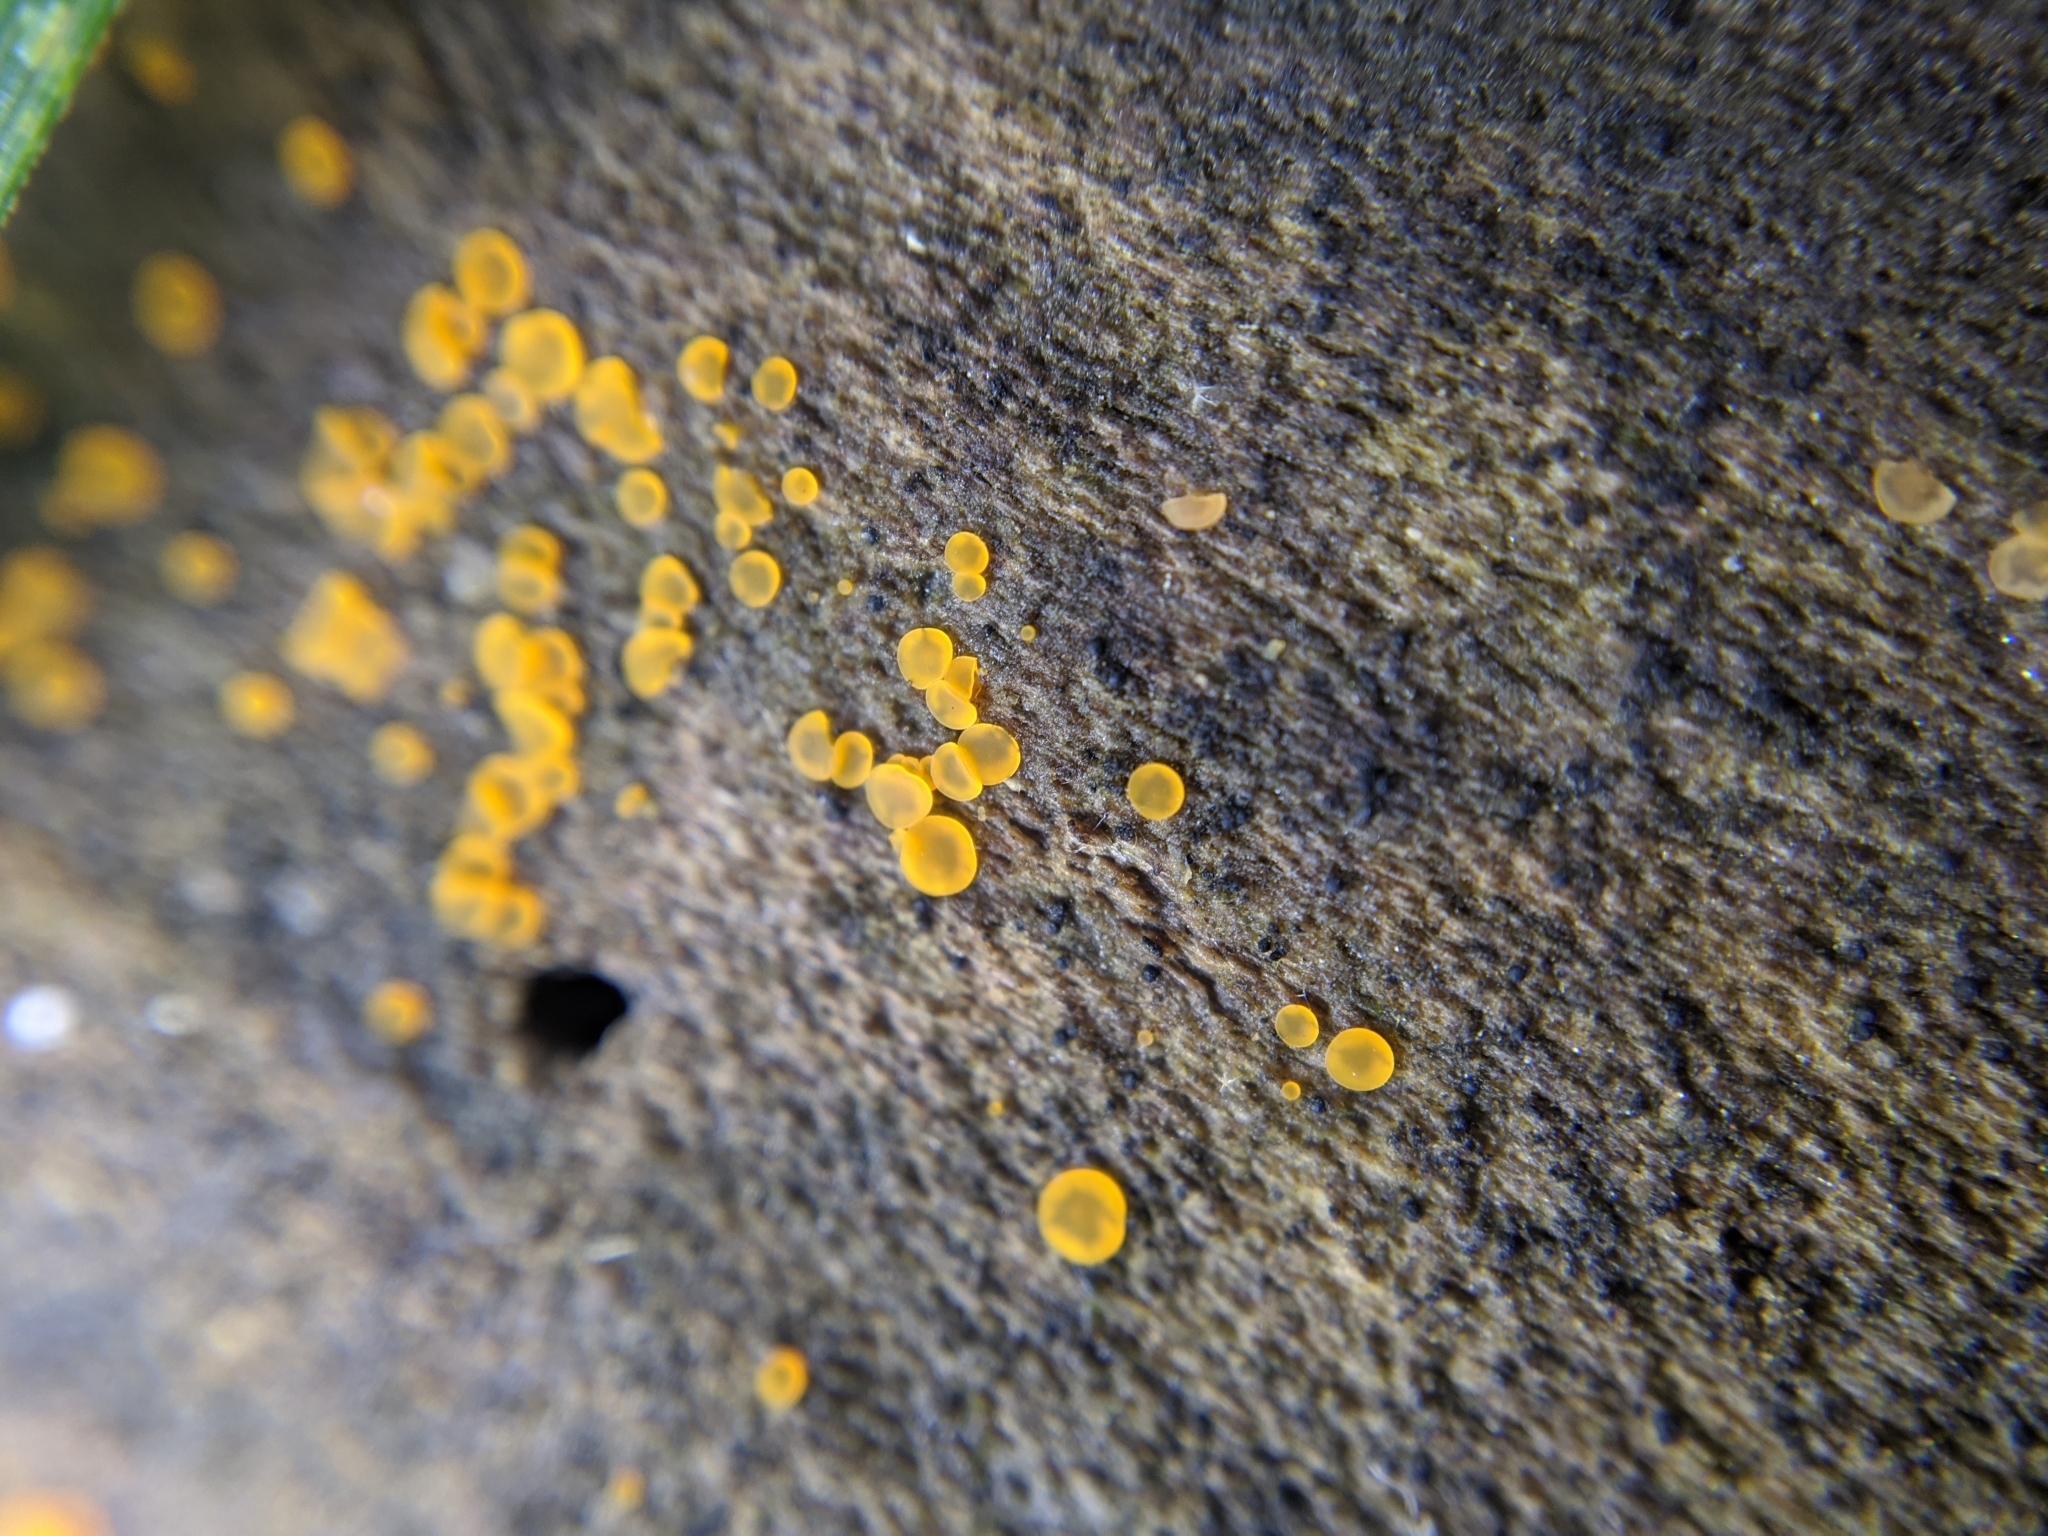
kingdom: Fungi
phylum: Ascomycota
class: Orbiliomycetes
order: Orbiliales
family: Orbiliaceae
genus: Orbilia
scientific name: Orbilia
